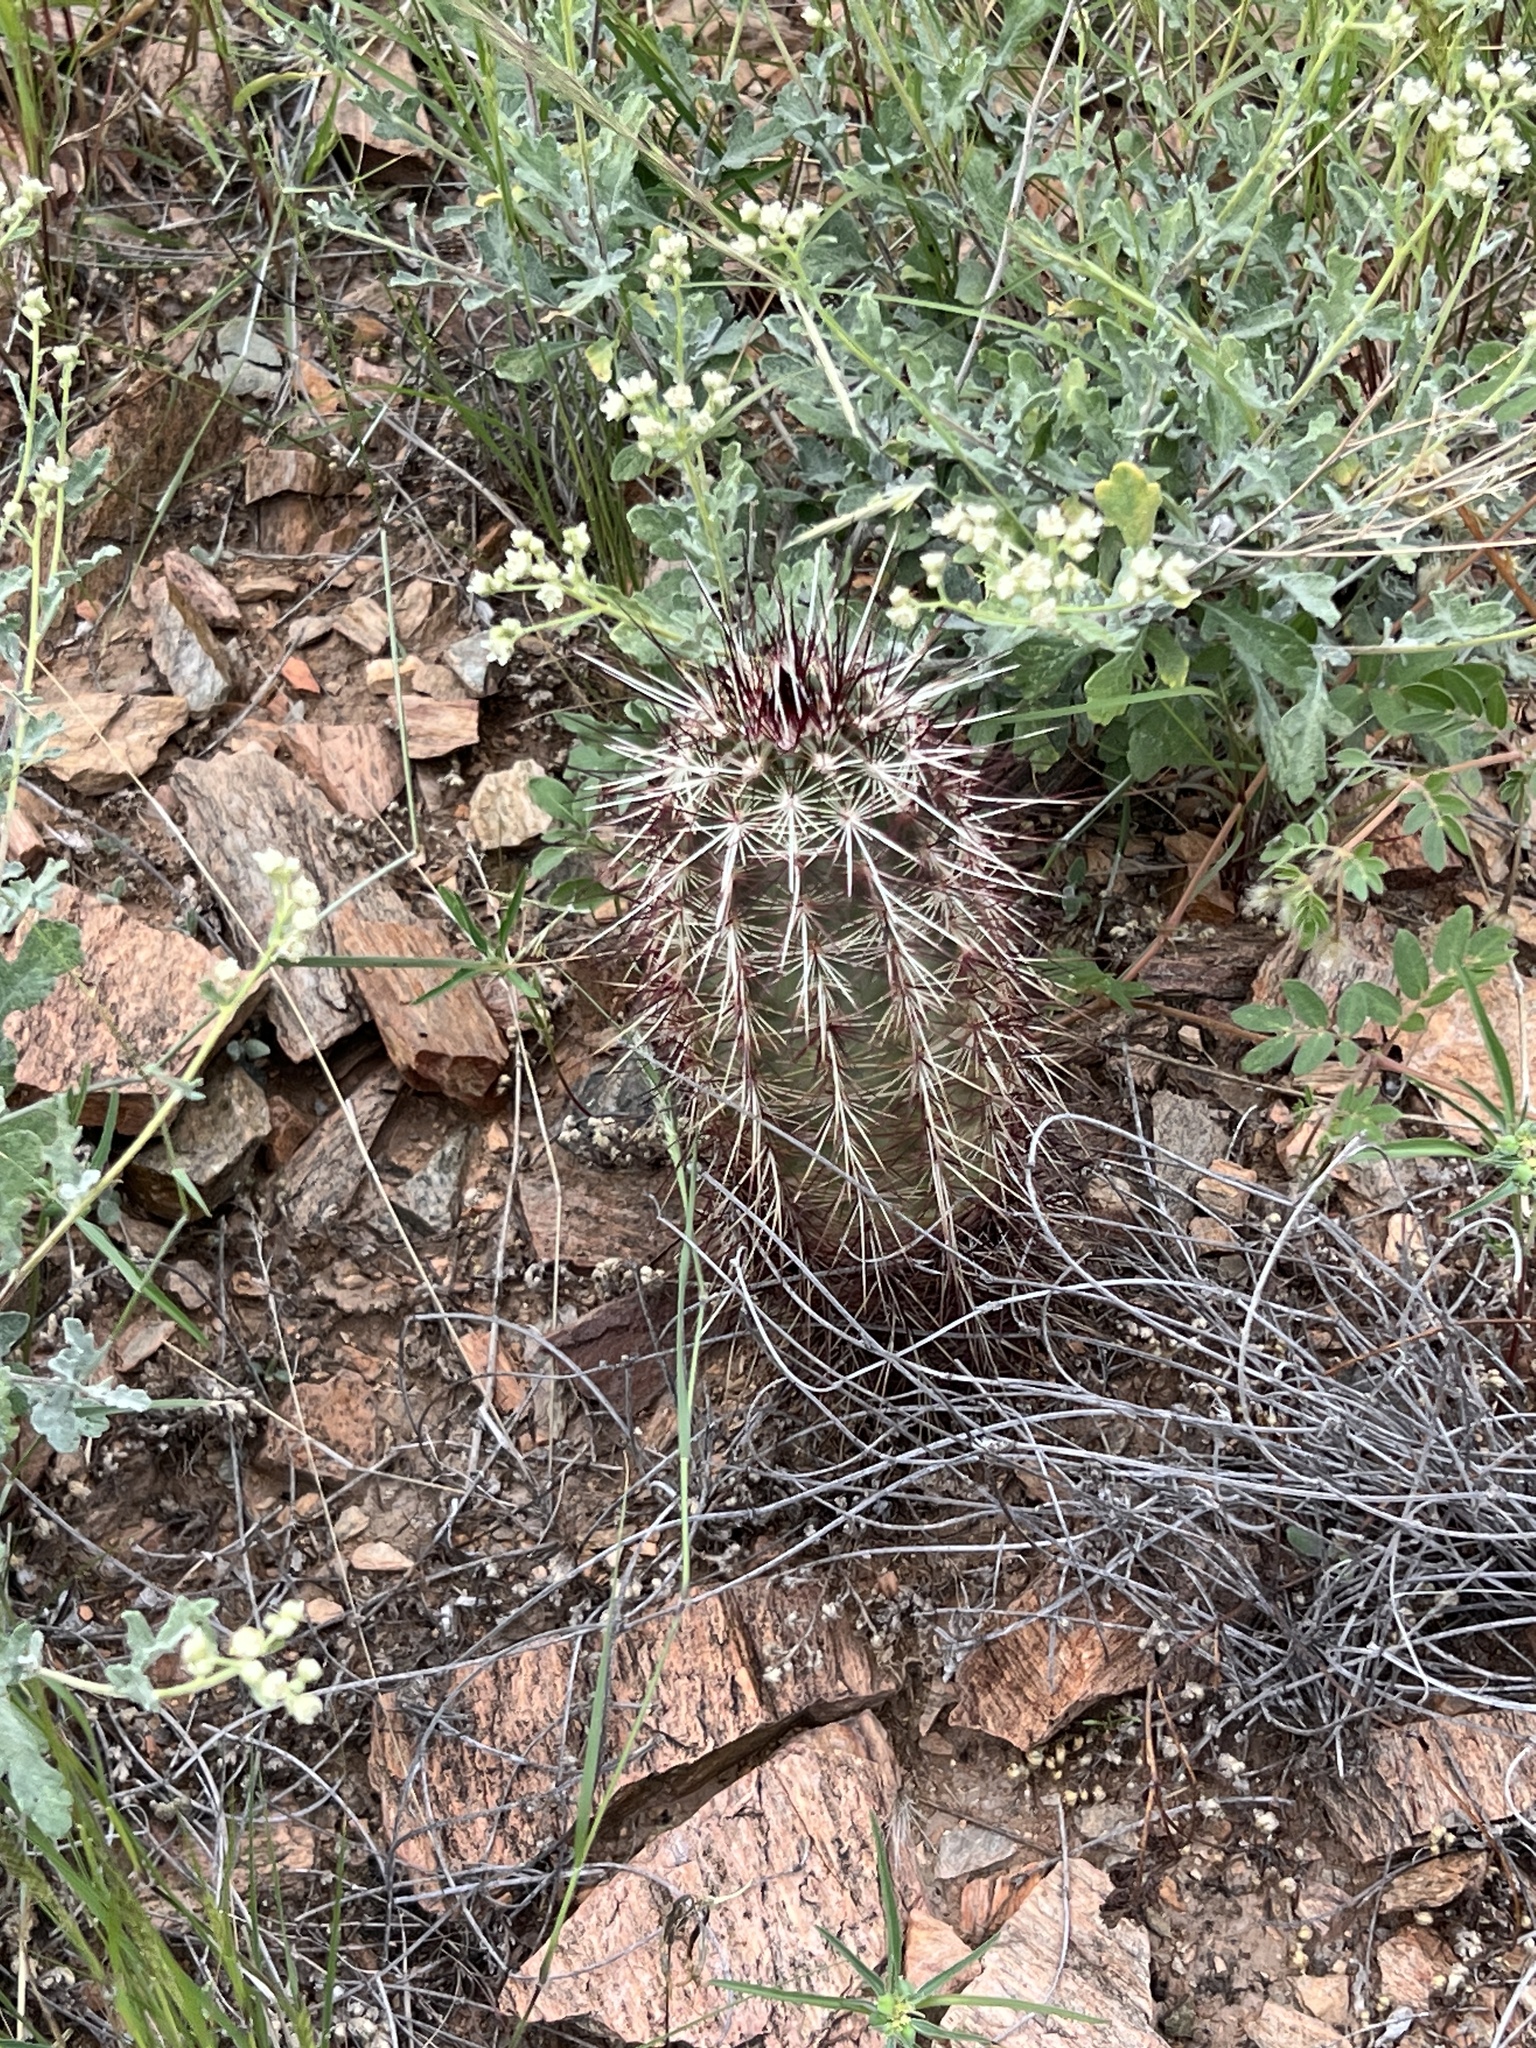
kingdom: Plantae
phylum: Tracheophyta
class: Magnoliopsida
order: Caryophyllales
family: Cactaceae
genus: Echinocereus
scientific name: Echinocereus viridiflorus
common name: Nylon hedgehog cactus
